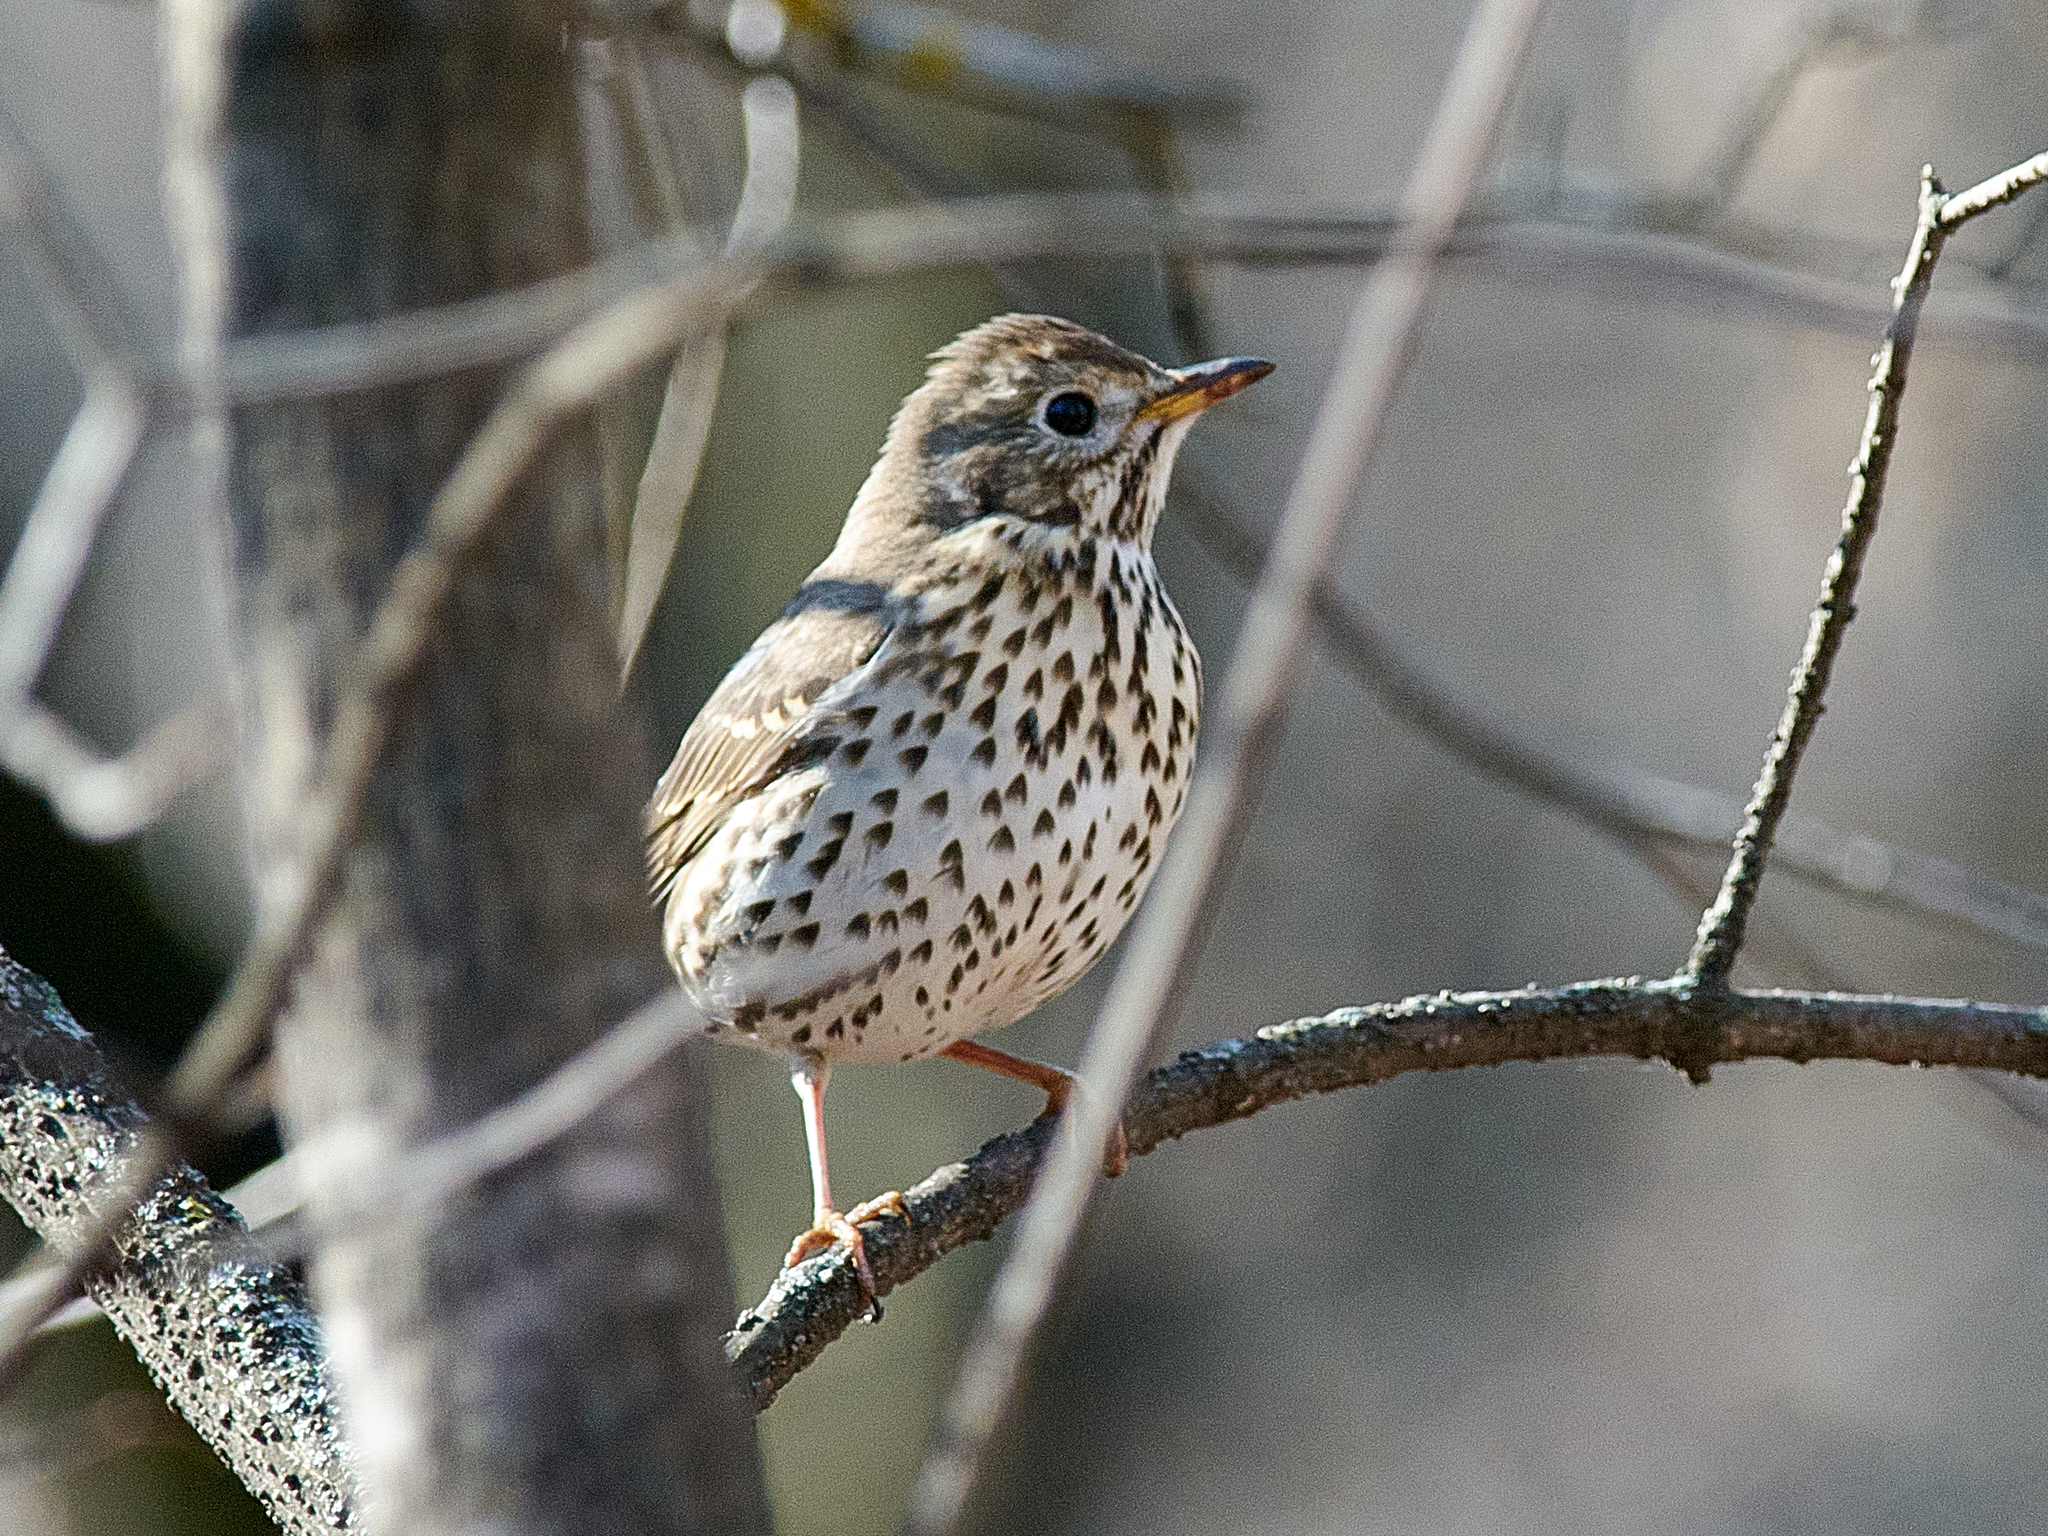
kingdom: Animalia
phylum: Chordata
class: Aves
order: Passeriformes
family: Turdidae
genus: Turdus
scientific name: Turdus philomelos
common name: Song thrush
